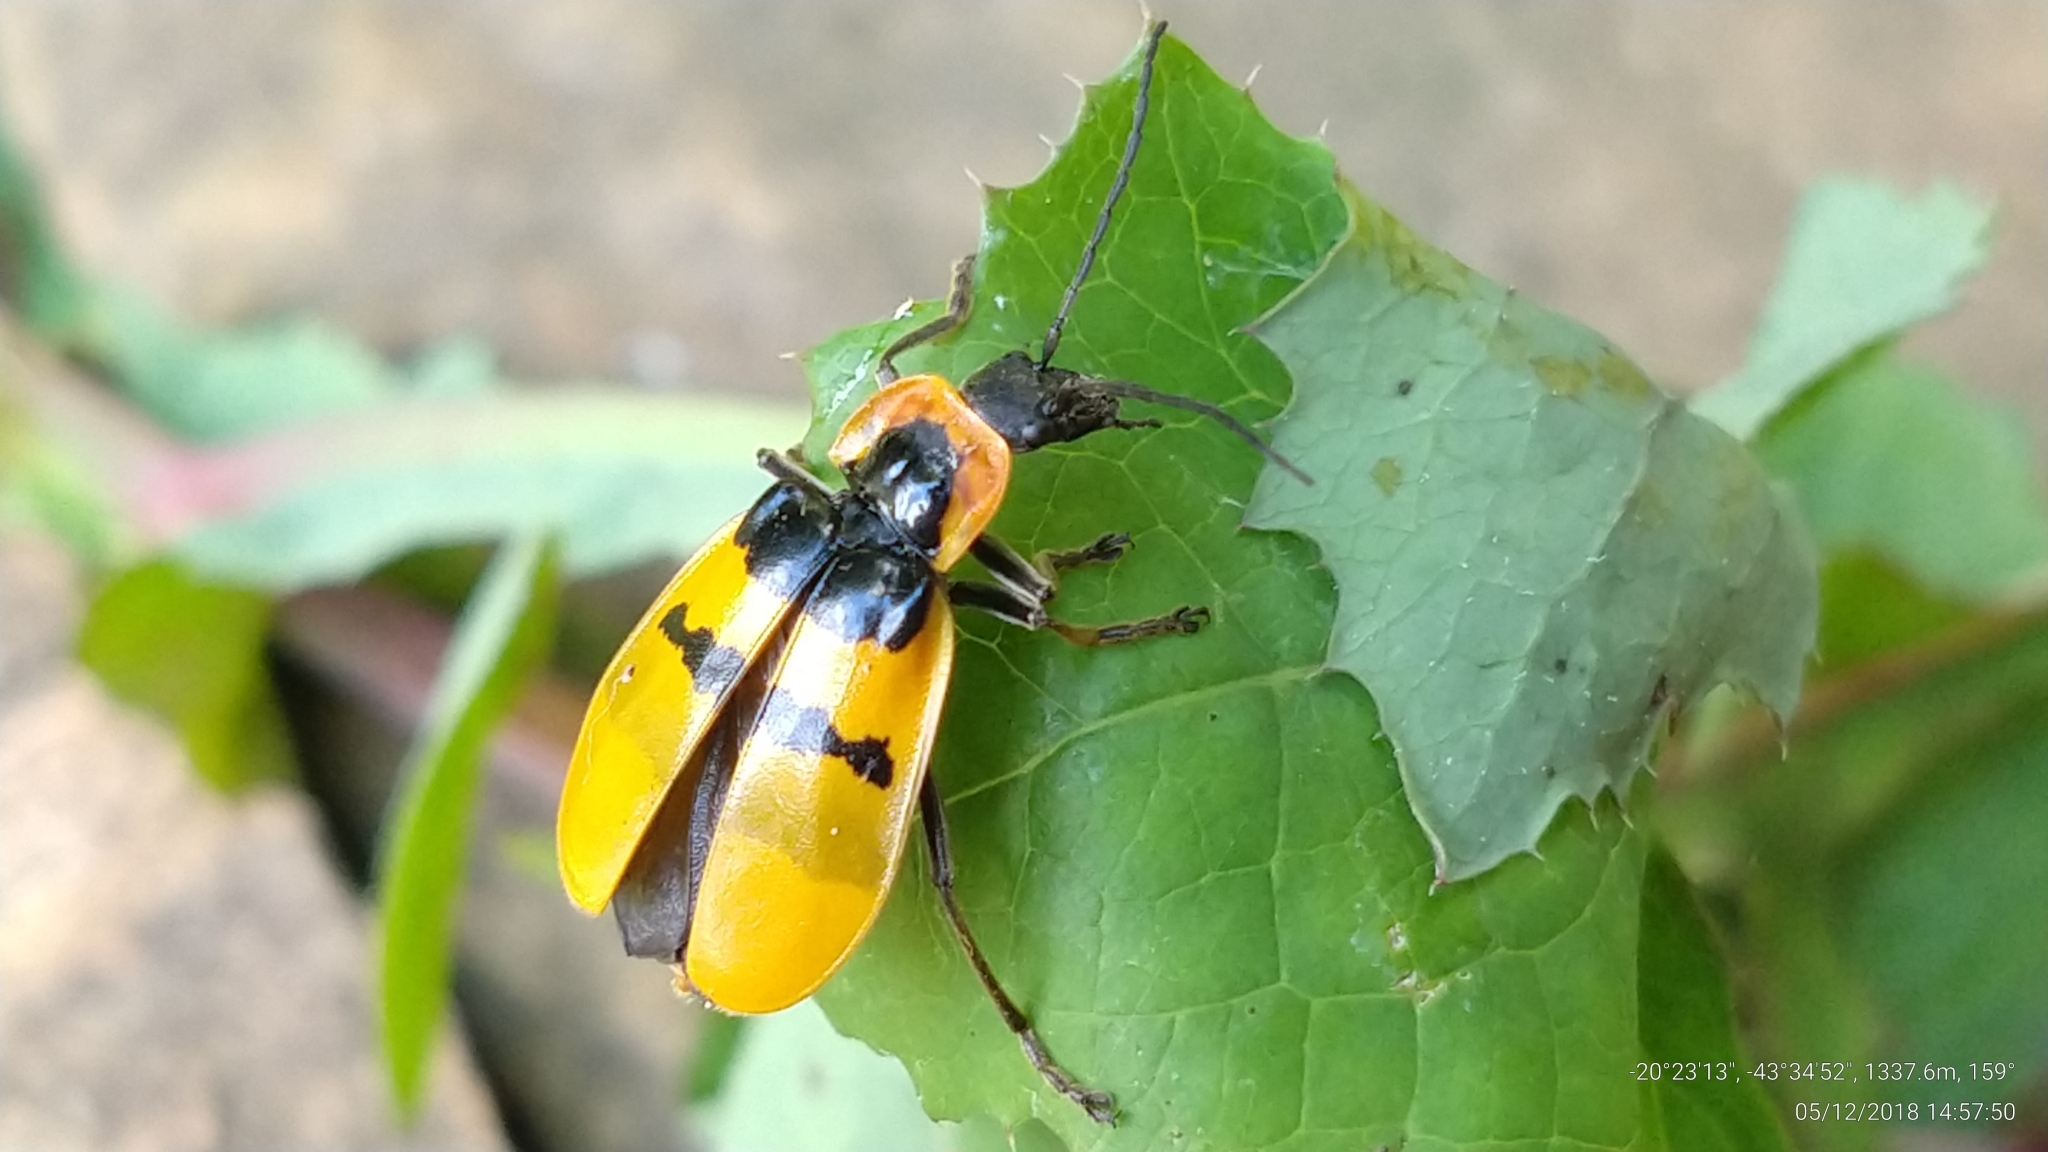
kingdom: Animalia
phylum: Arthropoda
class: Insecta
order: Coleoptera
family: Cantharidae
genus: Chauliognathus
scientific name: Chauliognathus
